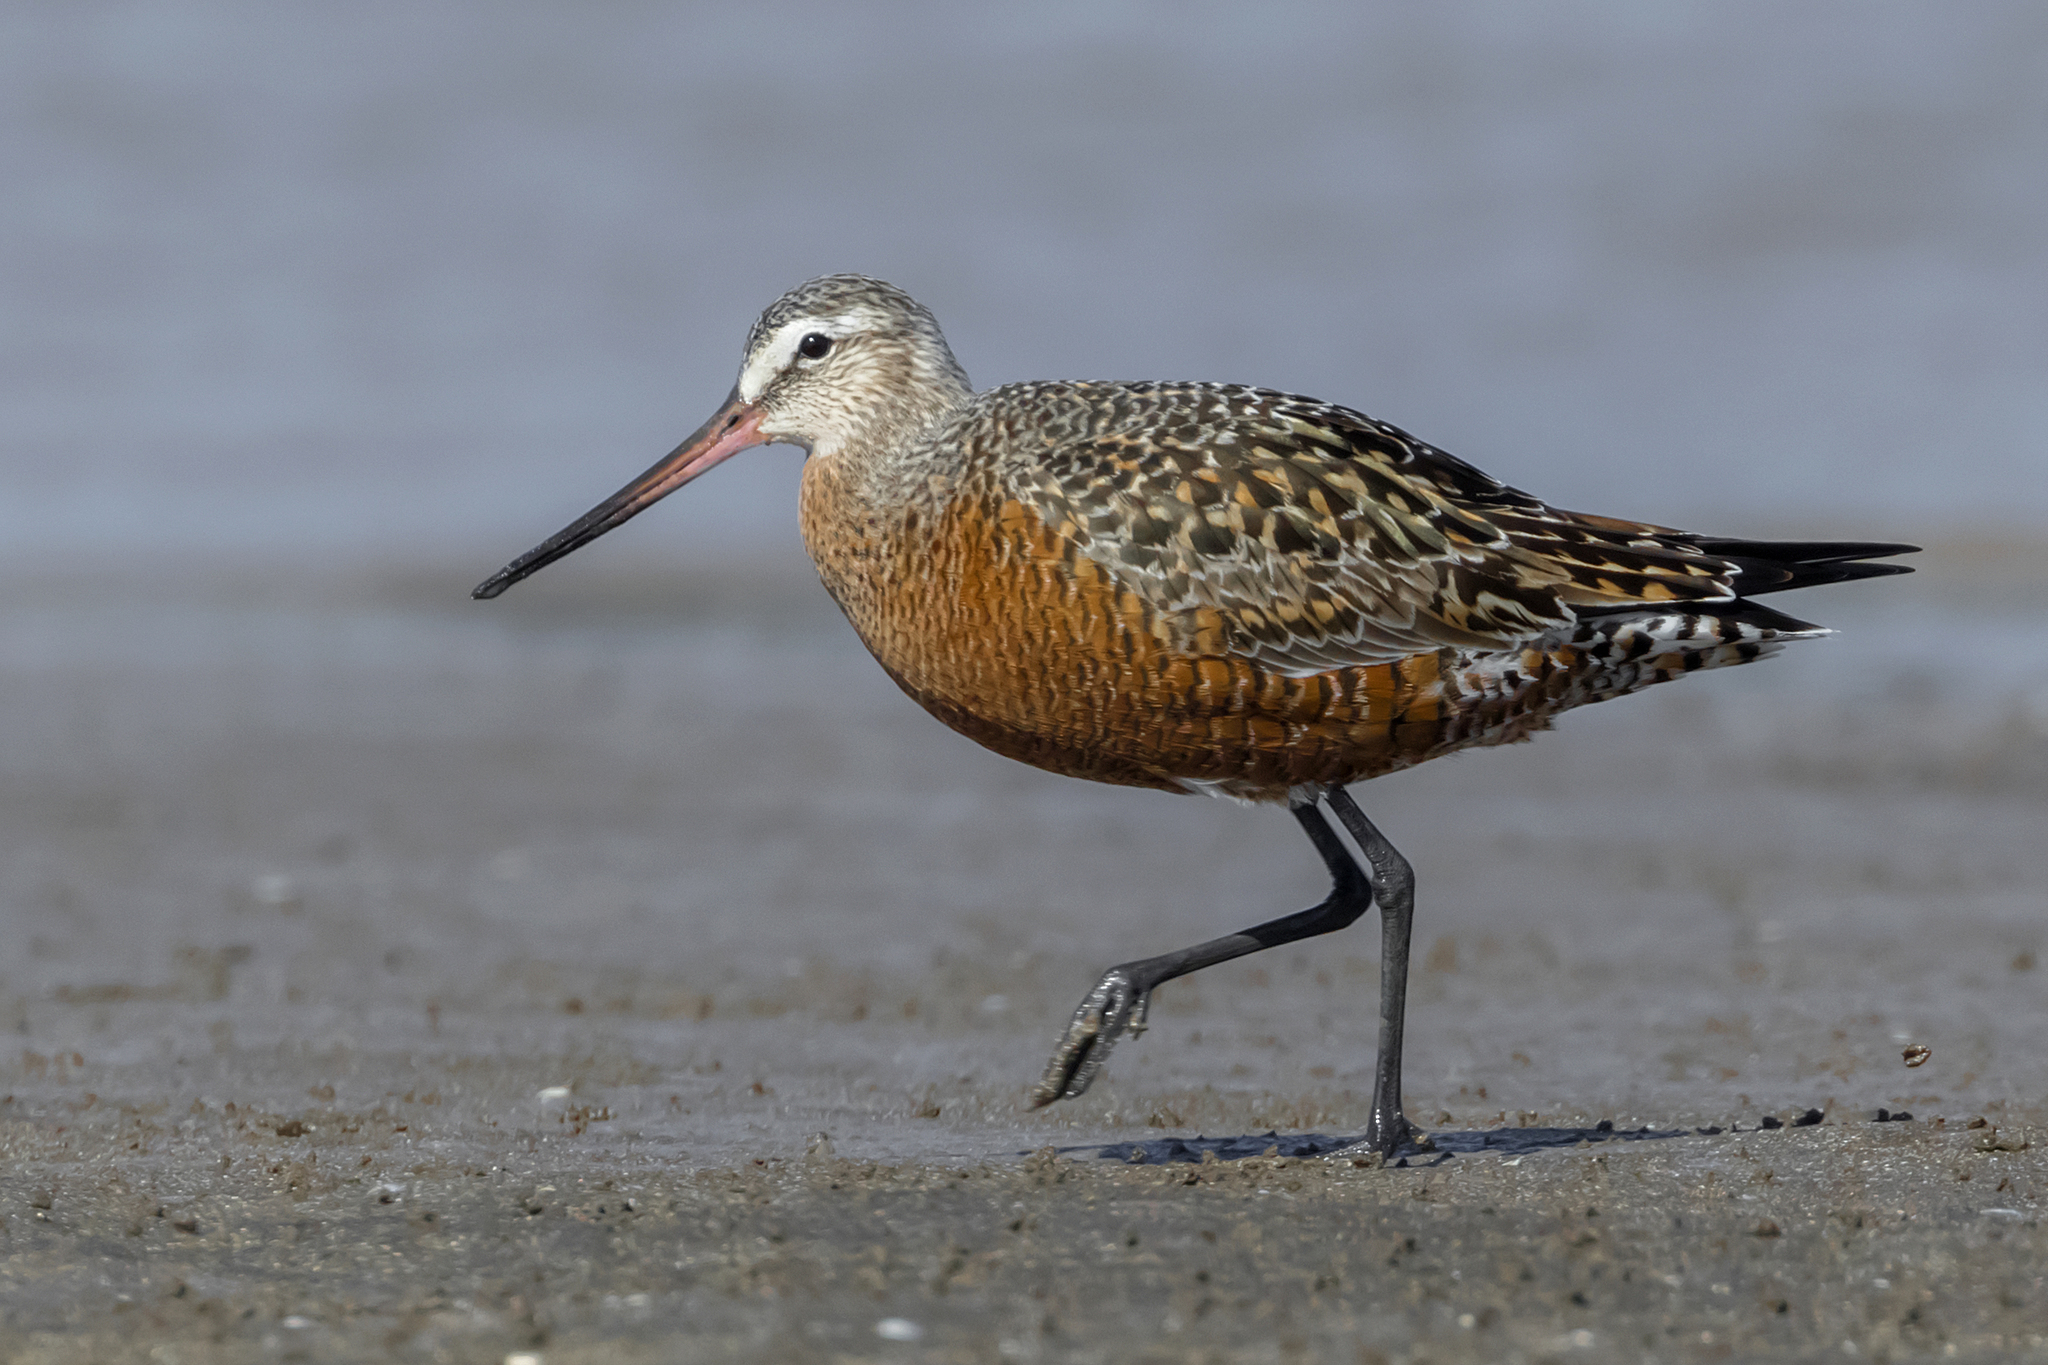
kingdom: Animalia
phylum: Chordata
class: Aves
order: Charadriiformes
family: Scolopacidae
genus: Limosa
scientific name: Limosa haemastica
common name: Hudsonian godwit
